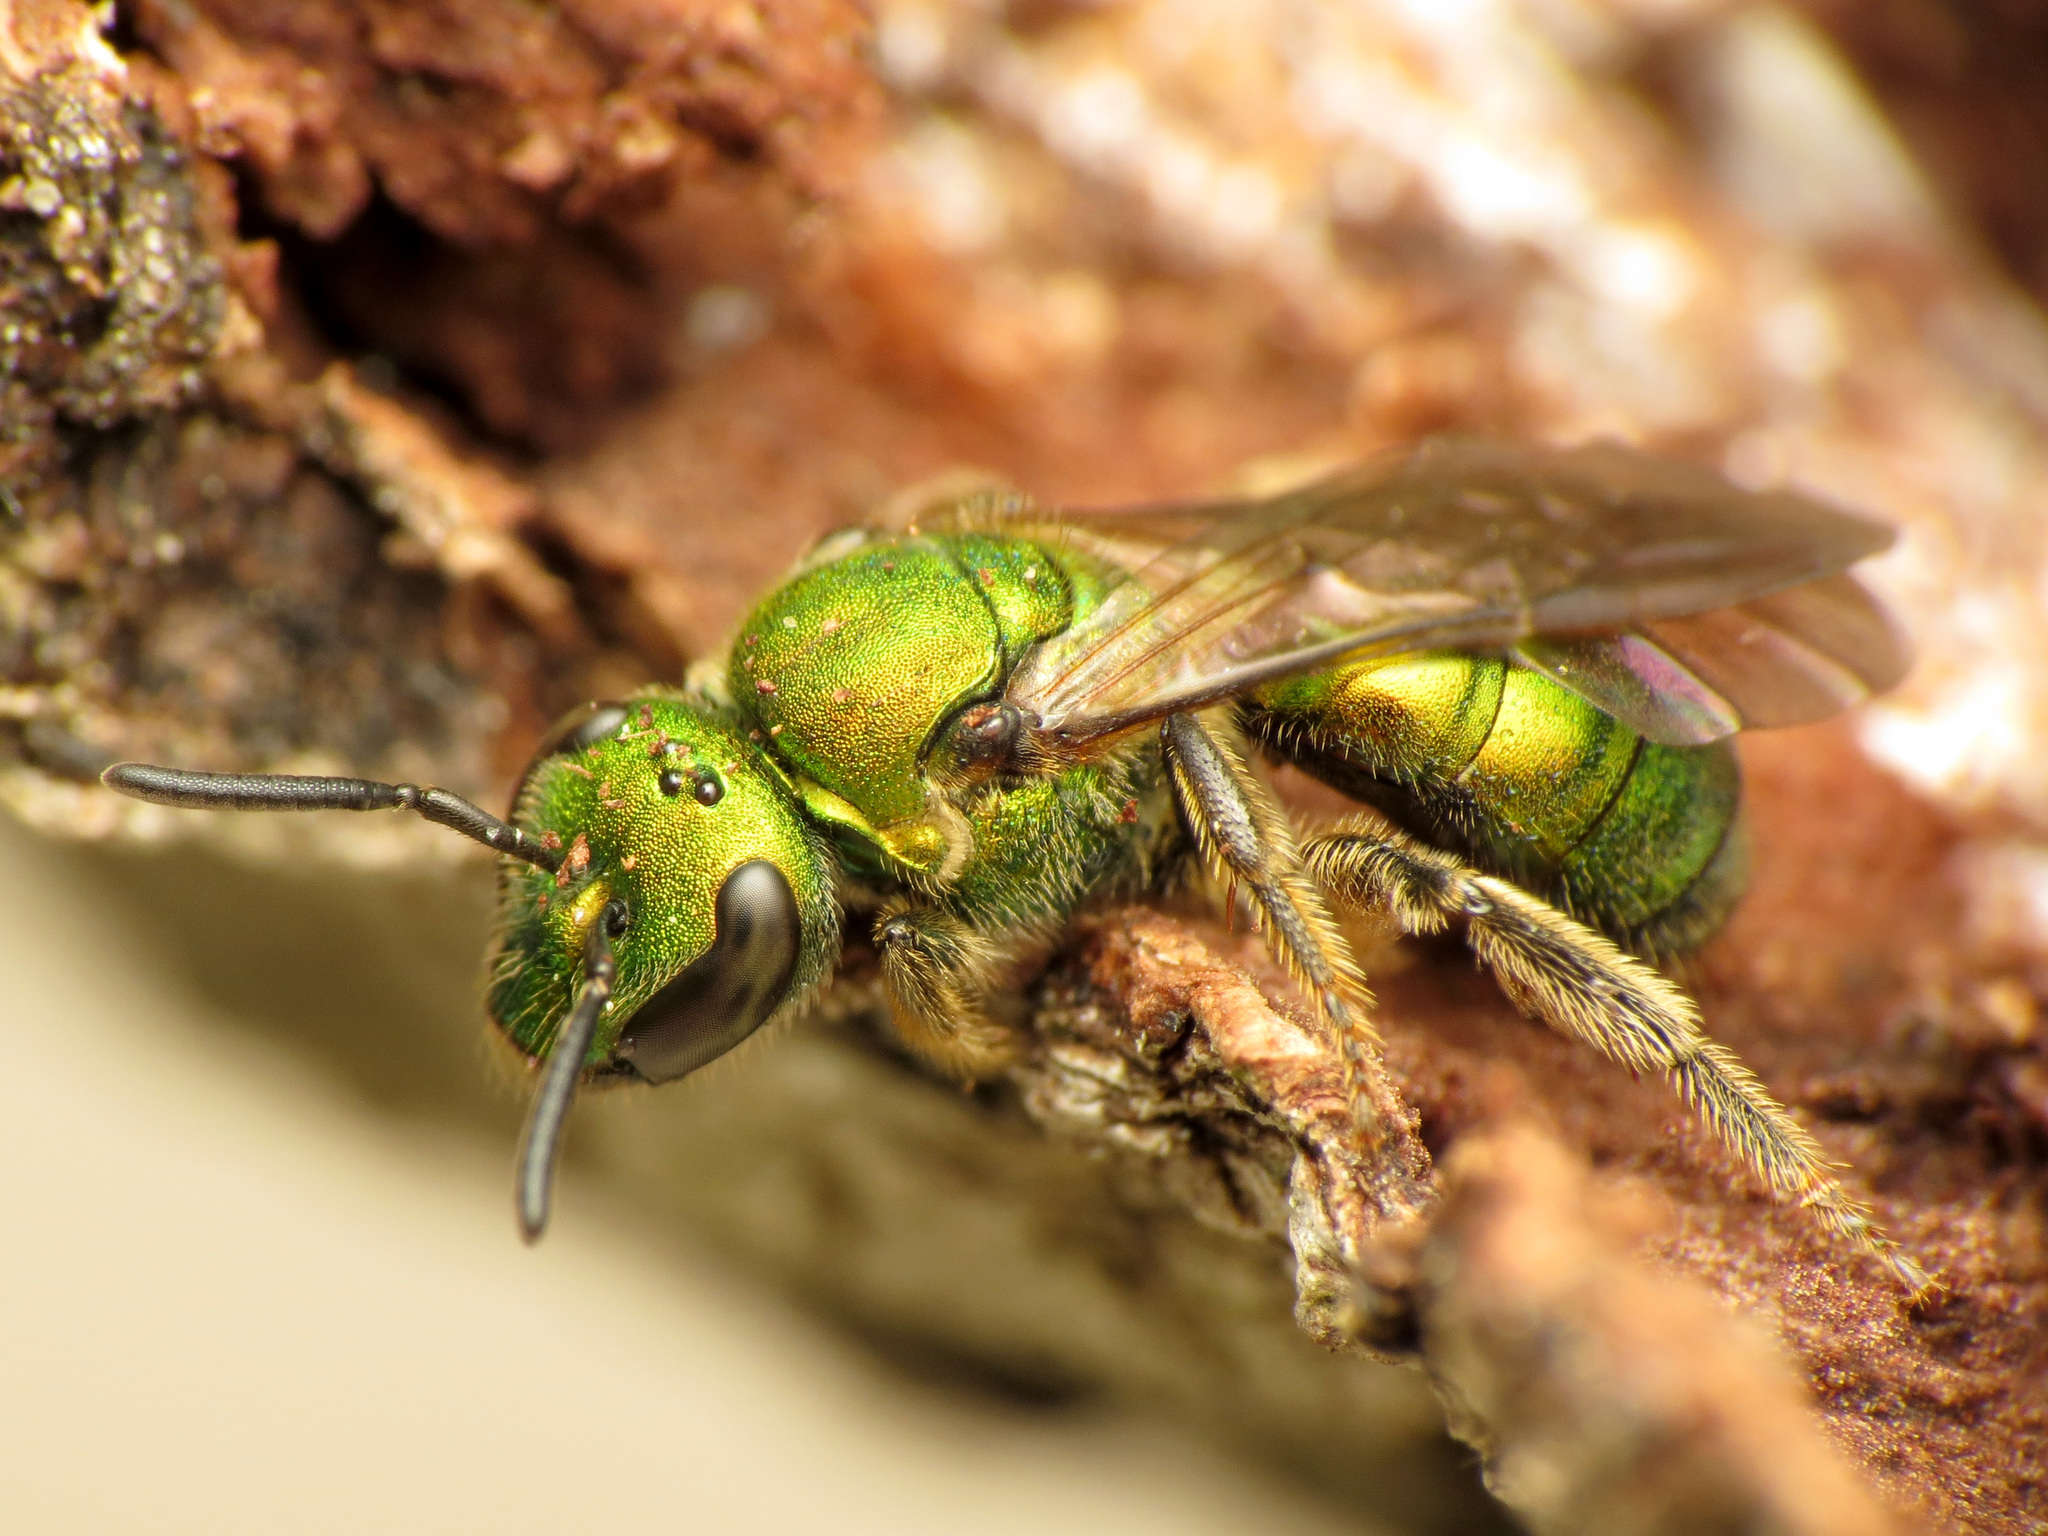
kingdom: Animalia
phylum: Arthropoda
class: Insecta
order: Hymenoptera
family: Halictidae
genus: Augochlora
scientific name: Augochlora pura
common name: Pure green sweat bee
